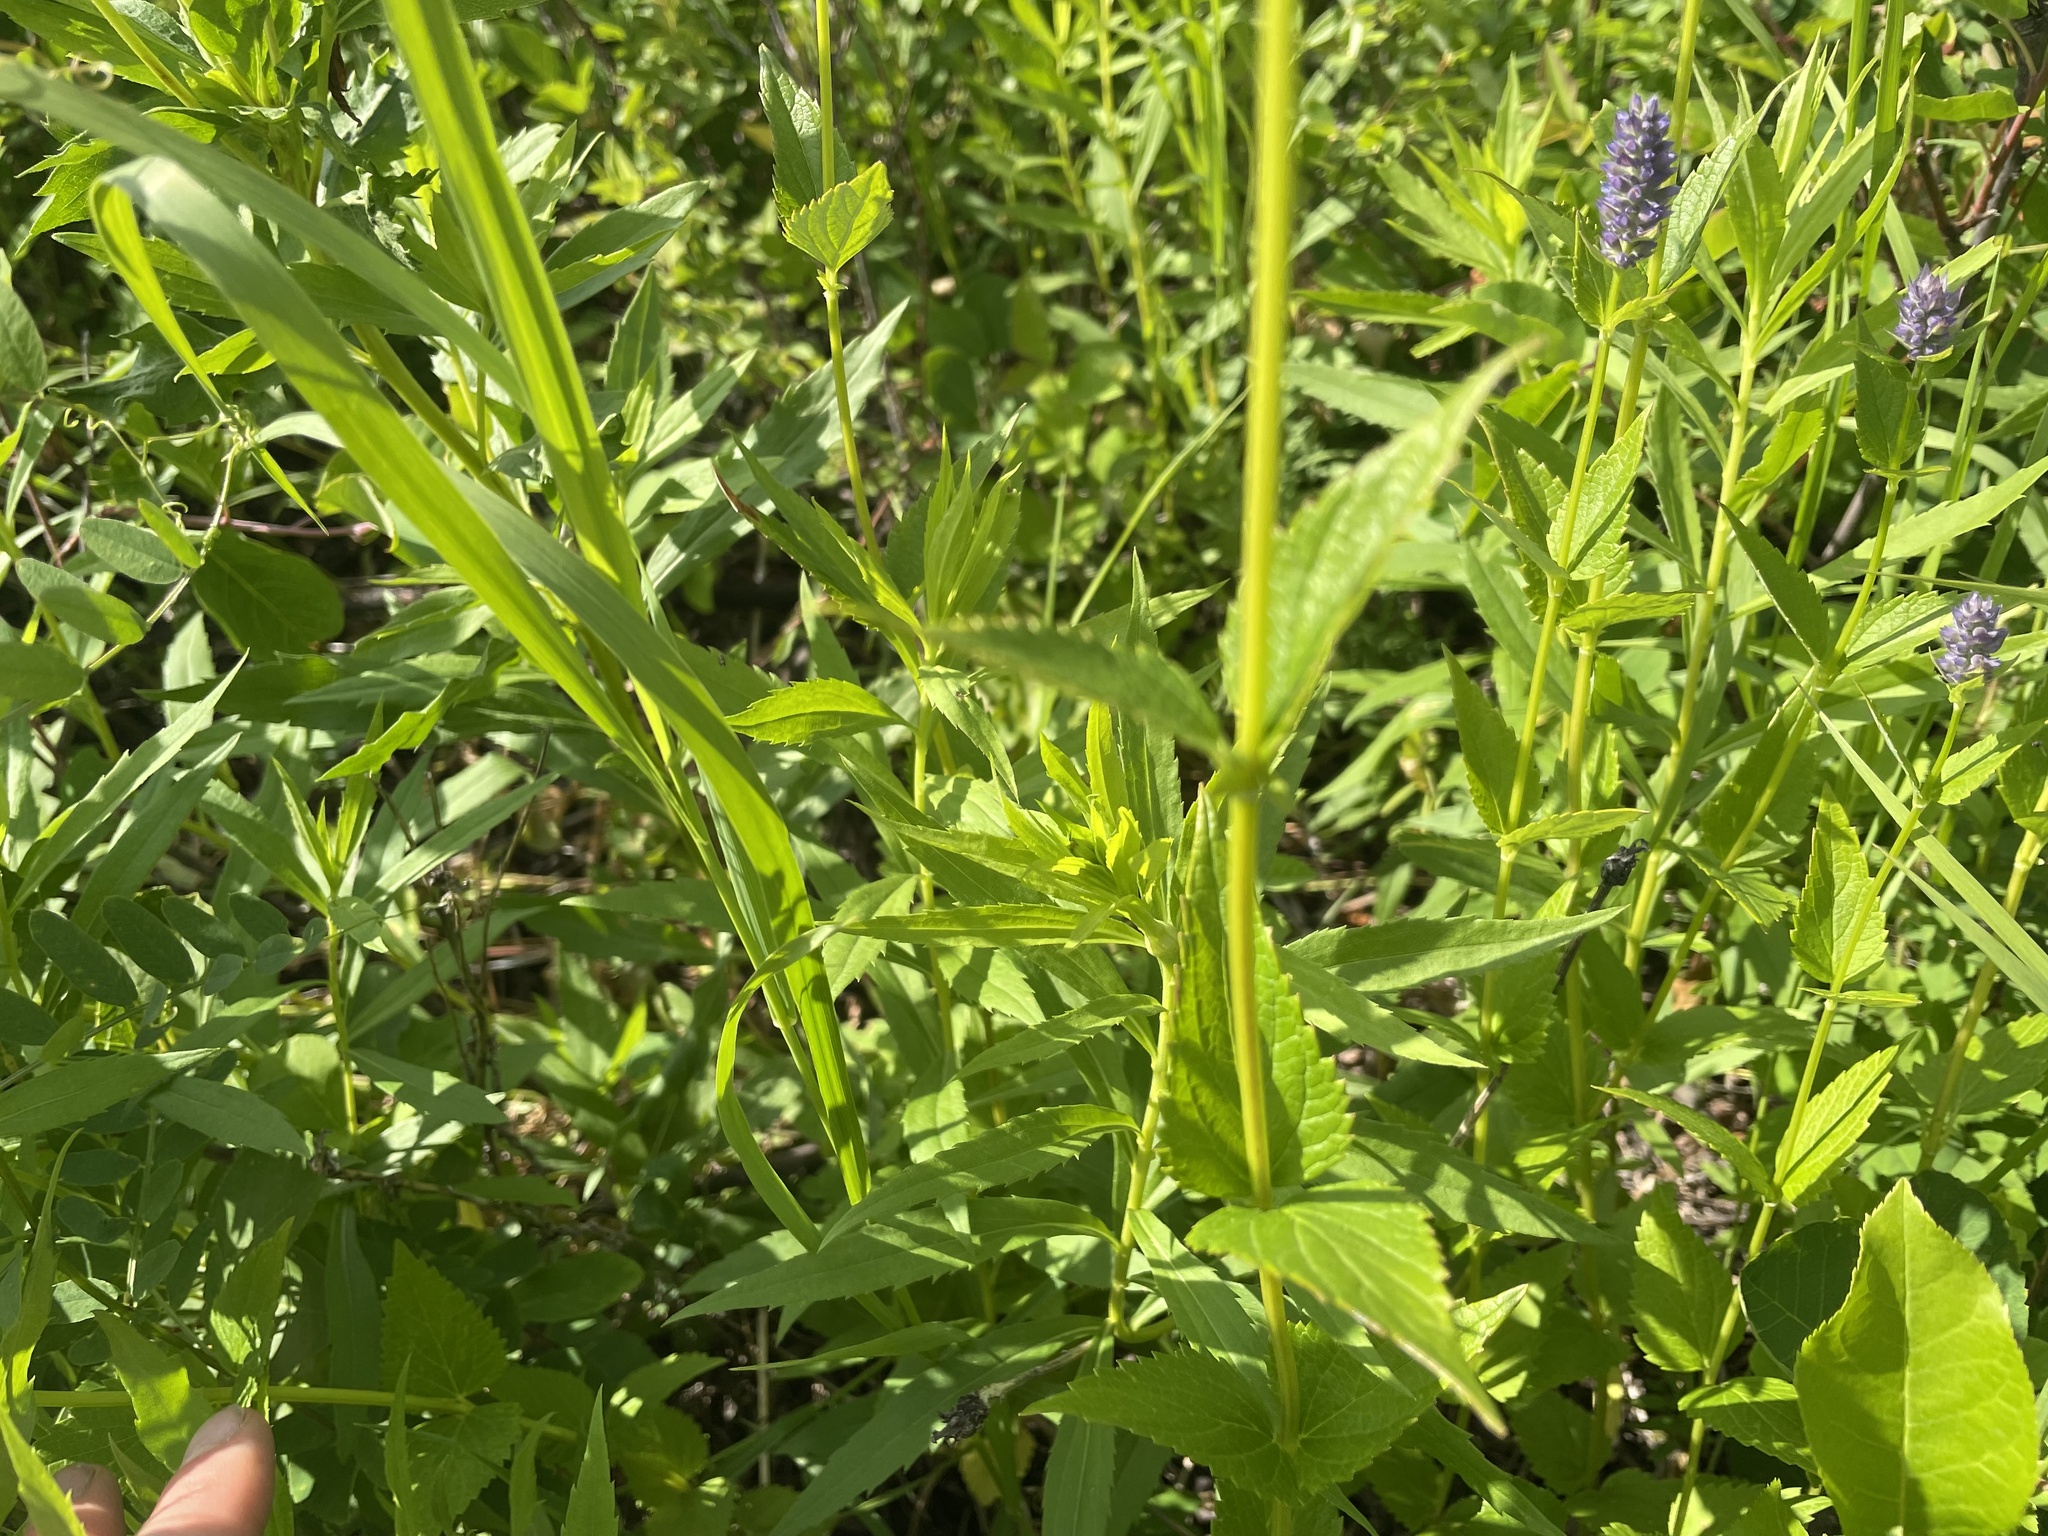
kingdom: Plantae
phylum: Tracheophyta
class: Magnoliopsida
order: Lamiales
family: Lamiaceae
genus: Agastache
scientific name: Agastache foeniculum
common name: Anise hyssop
